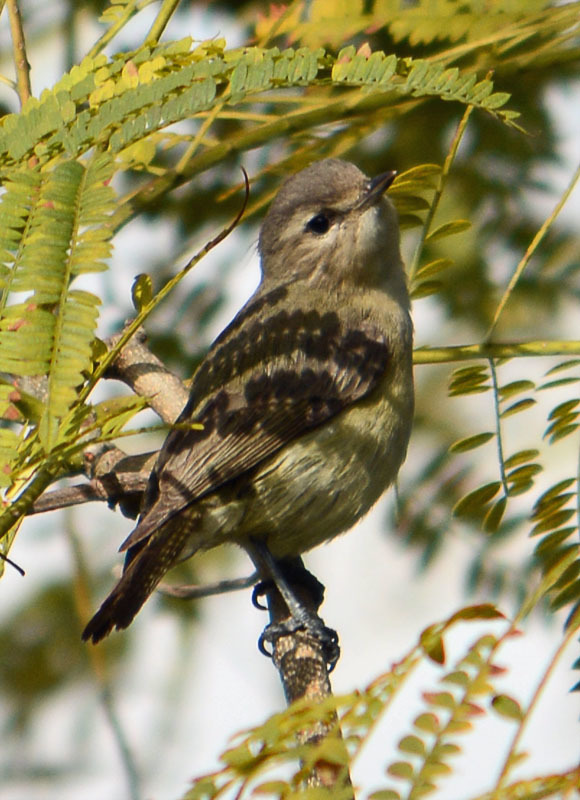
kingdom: Animalia
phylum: Chordata
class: Aves
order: Passeriformes
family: Vireonidae
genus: Vireo
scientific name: Vireo gilvus
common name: Warbling vireo
